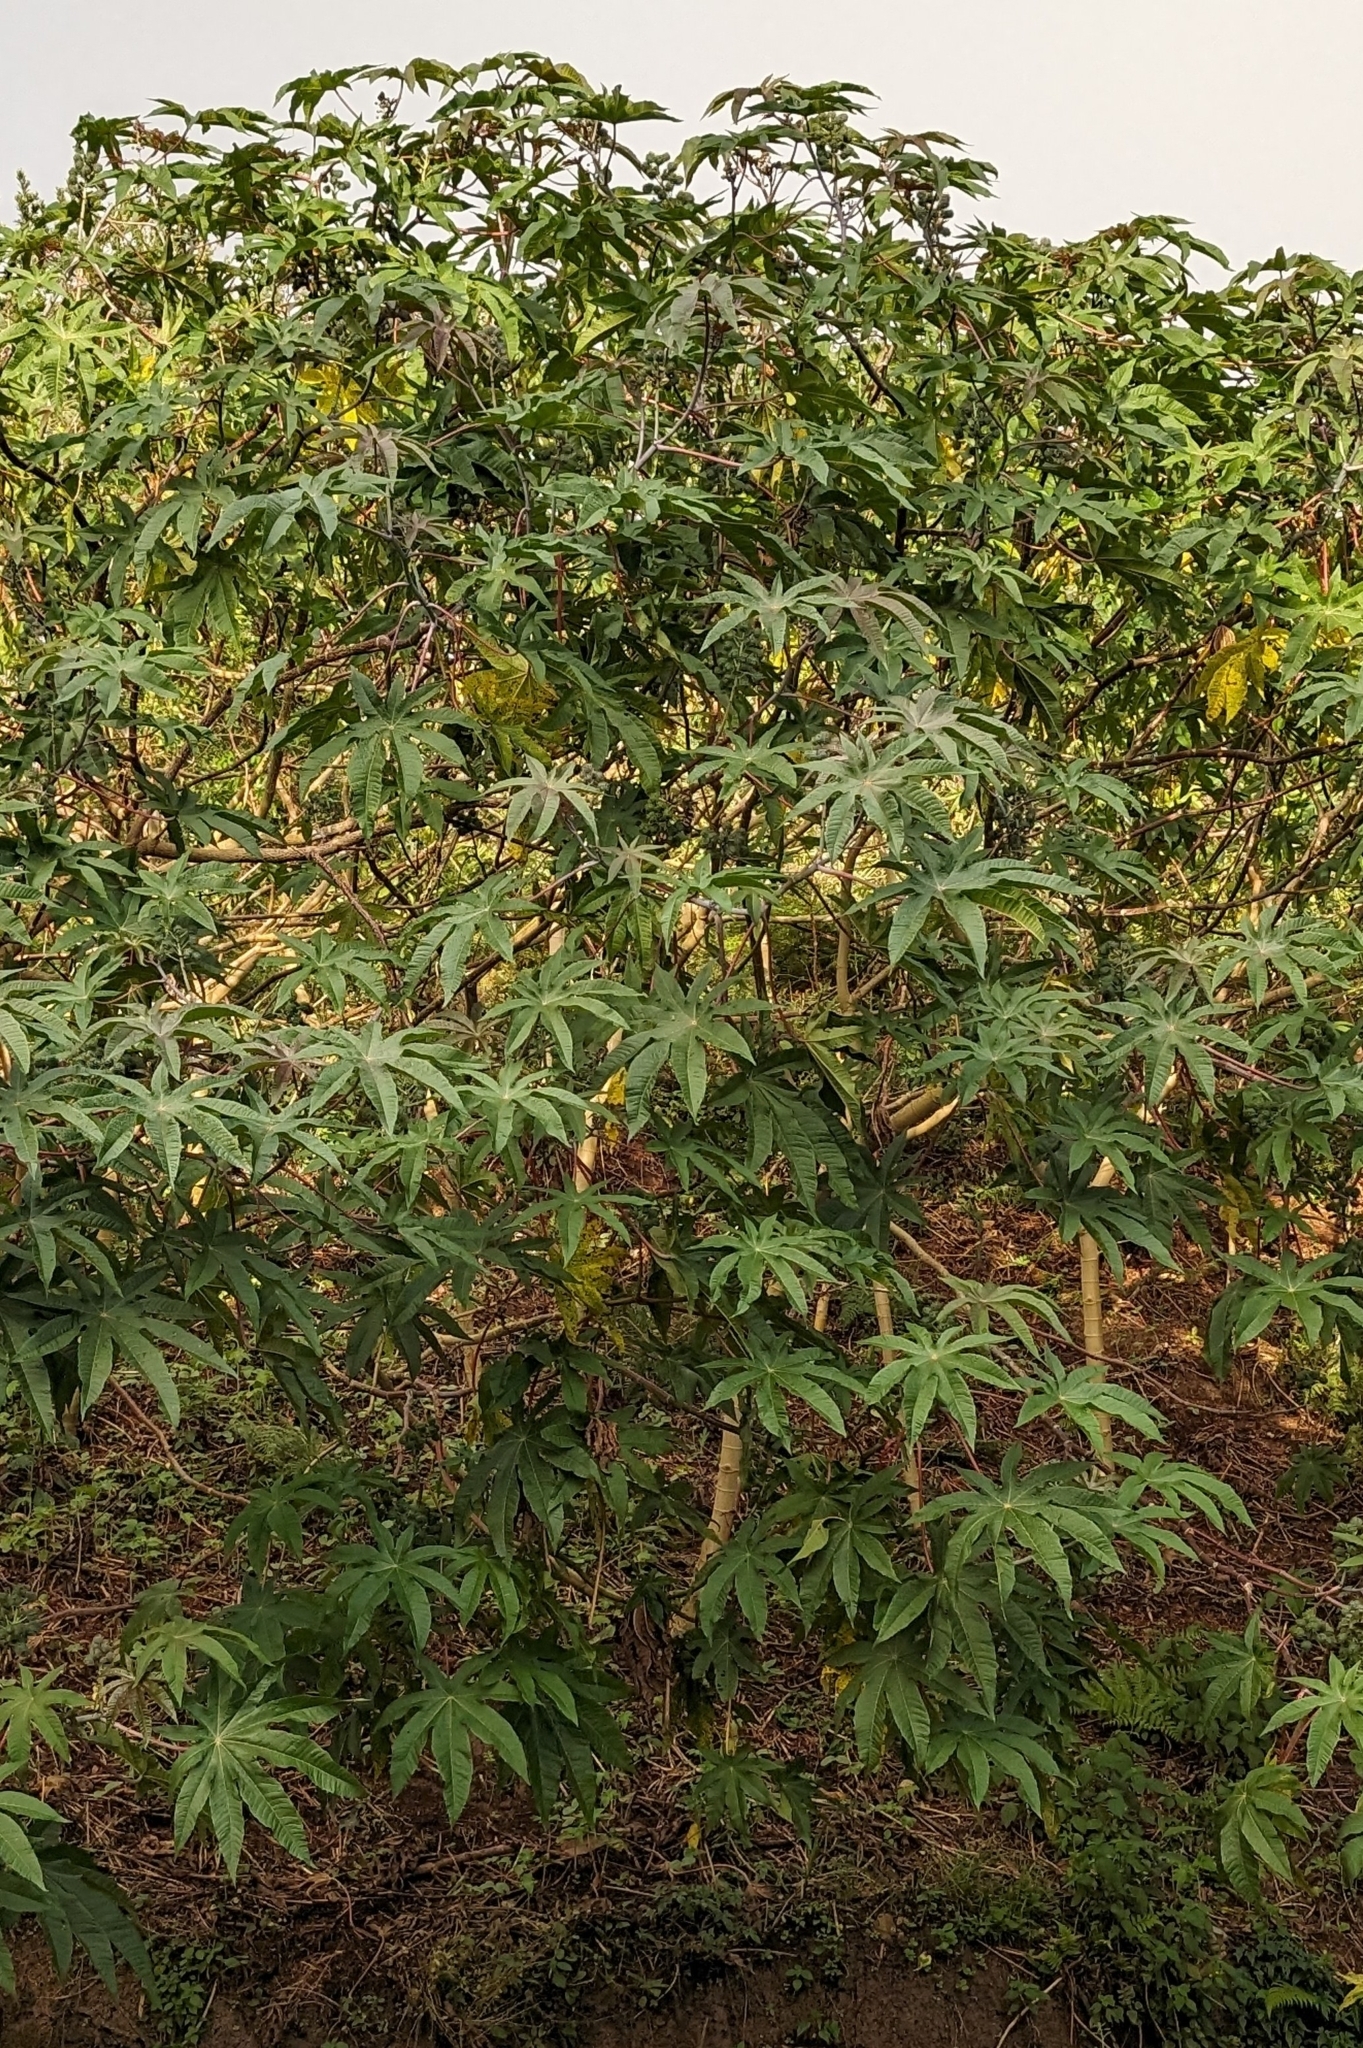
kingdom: Plantae
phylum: Tracheophyta
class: Magnoliopsida
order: Malpighiales
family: Euphorbiaceae
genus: Ricinus
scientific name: Ricinus communis
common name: Castor-oil-plant
